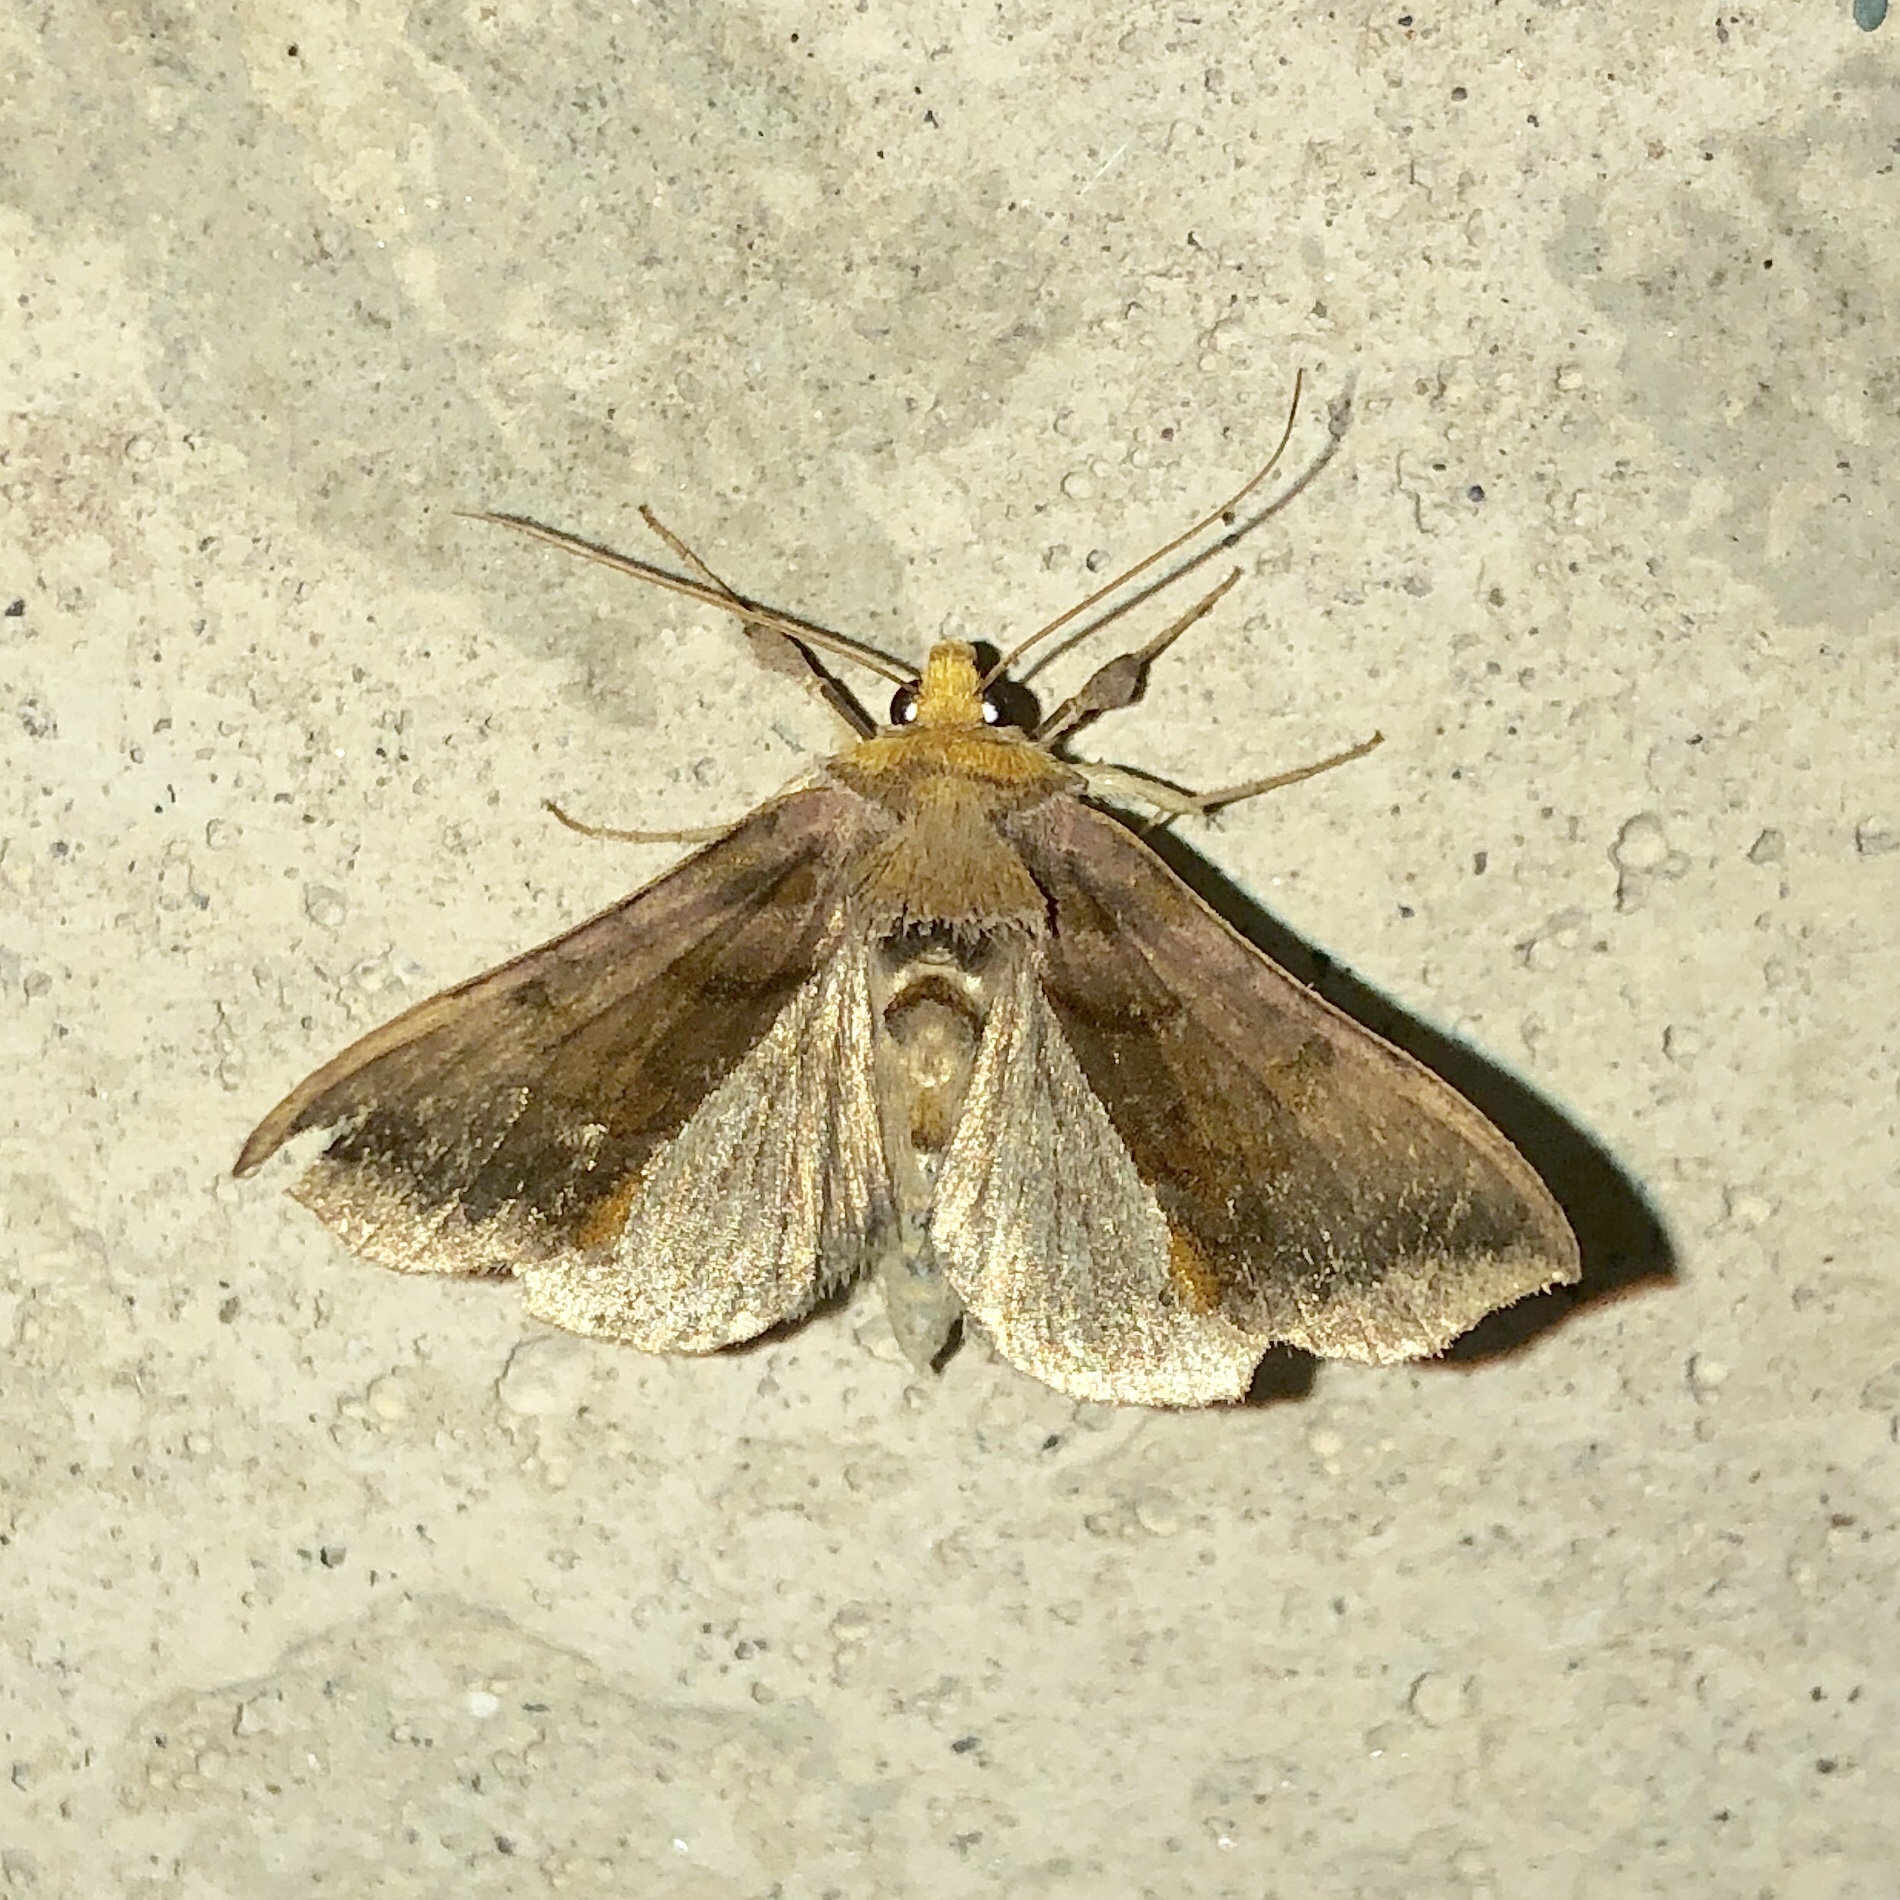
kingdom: Animalia
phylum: Arthropoda
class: Insecta
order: Lepidoptera
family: Noctuidae
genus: Allagrapha
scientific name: Allagrapha aerea
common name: Unspotted looper moth
